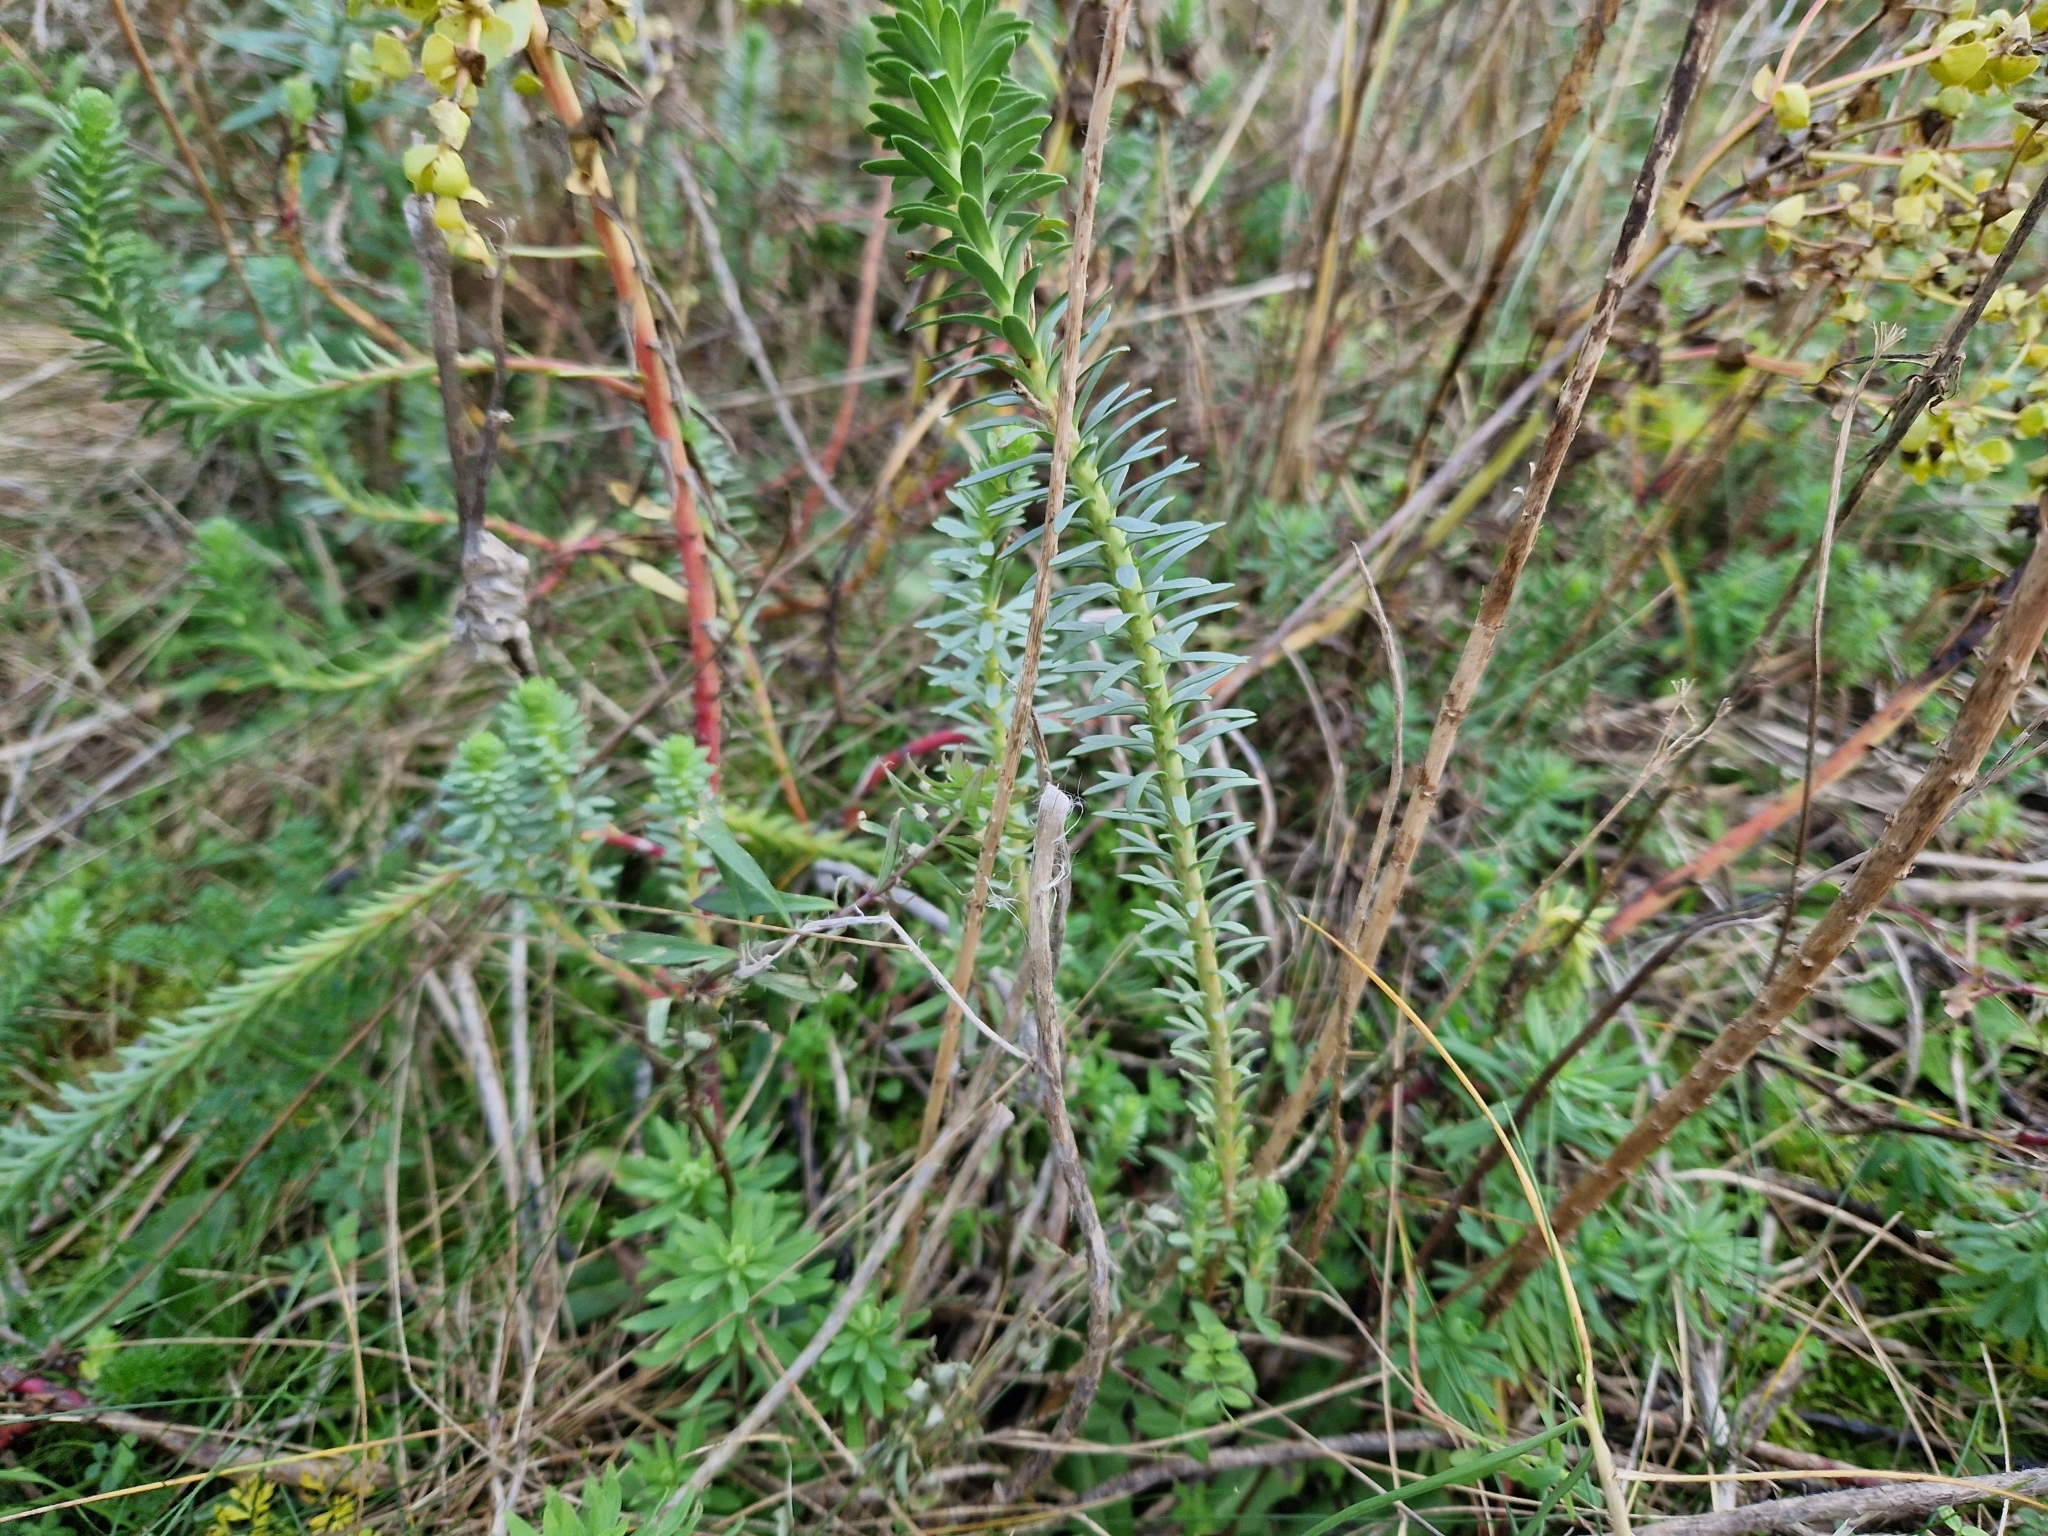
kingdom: Plantae
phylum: Tracheophyta
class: Magnoliopsida
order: Malpighiales
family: Euphorbiaceae
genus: Euphorbia
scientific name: Euphorbia paralias
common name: Sea spurge
